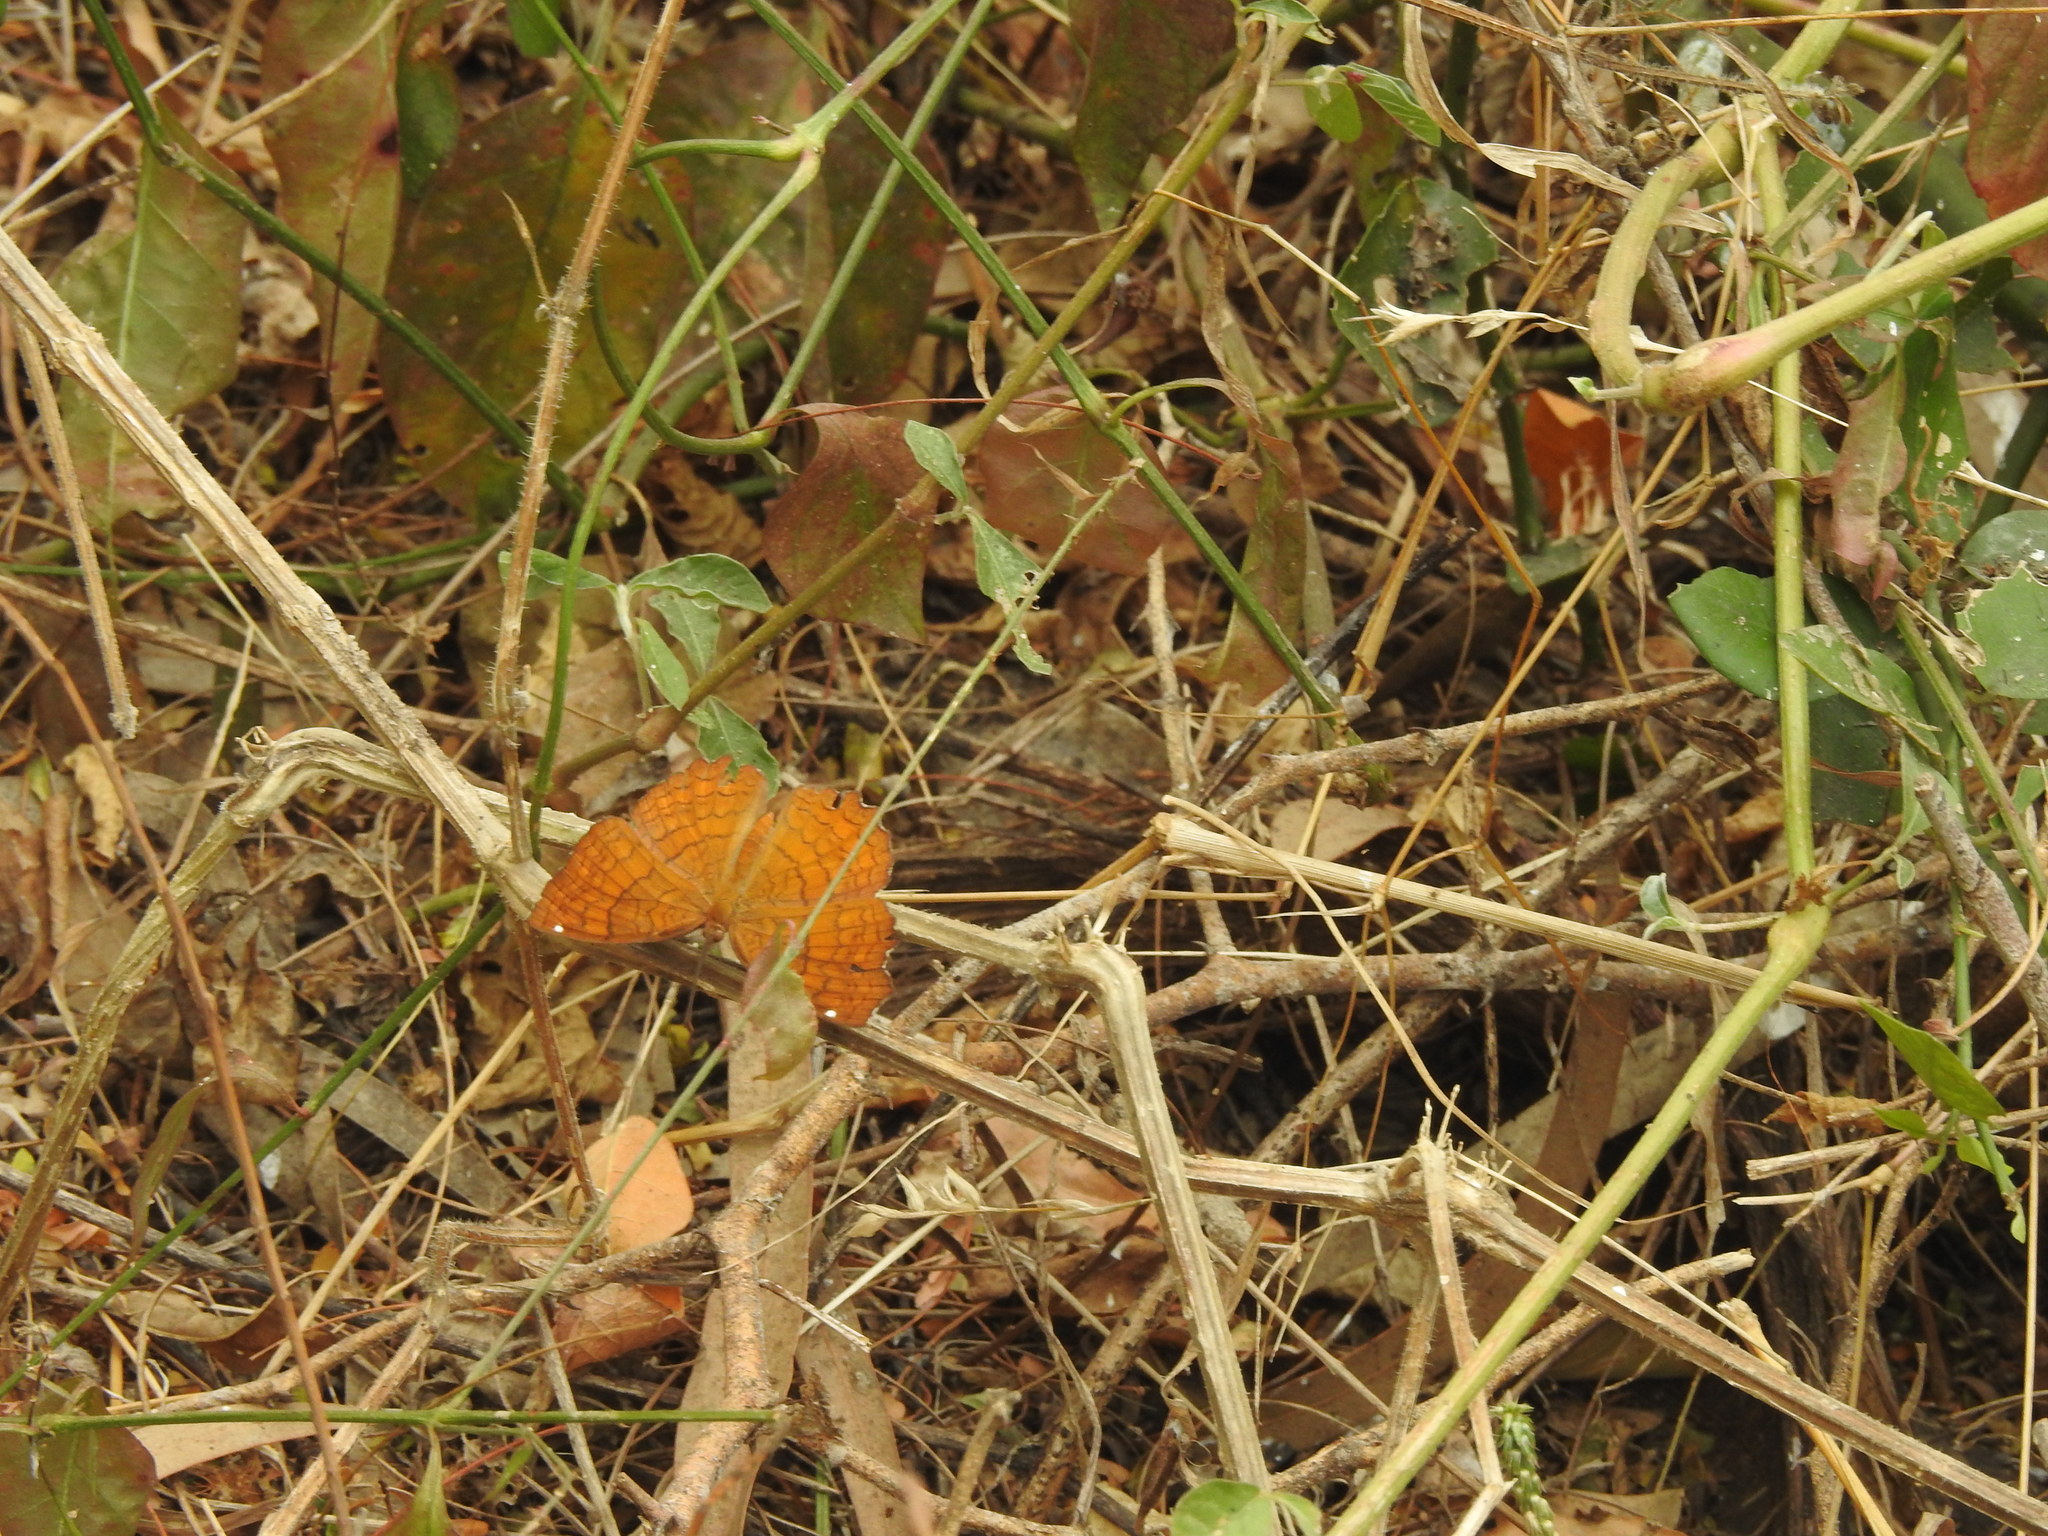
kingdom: Animalia
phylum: Arthropoda
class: Insecta
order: Lepidoptera
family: Nymphalidae
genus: Ariadne
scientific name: Ariadne ariadne
